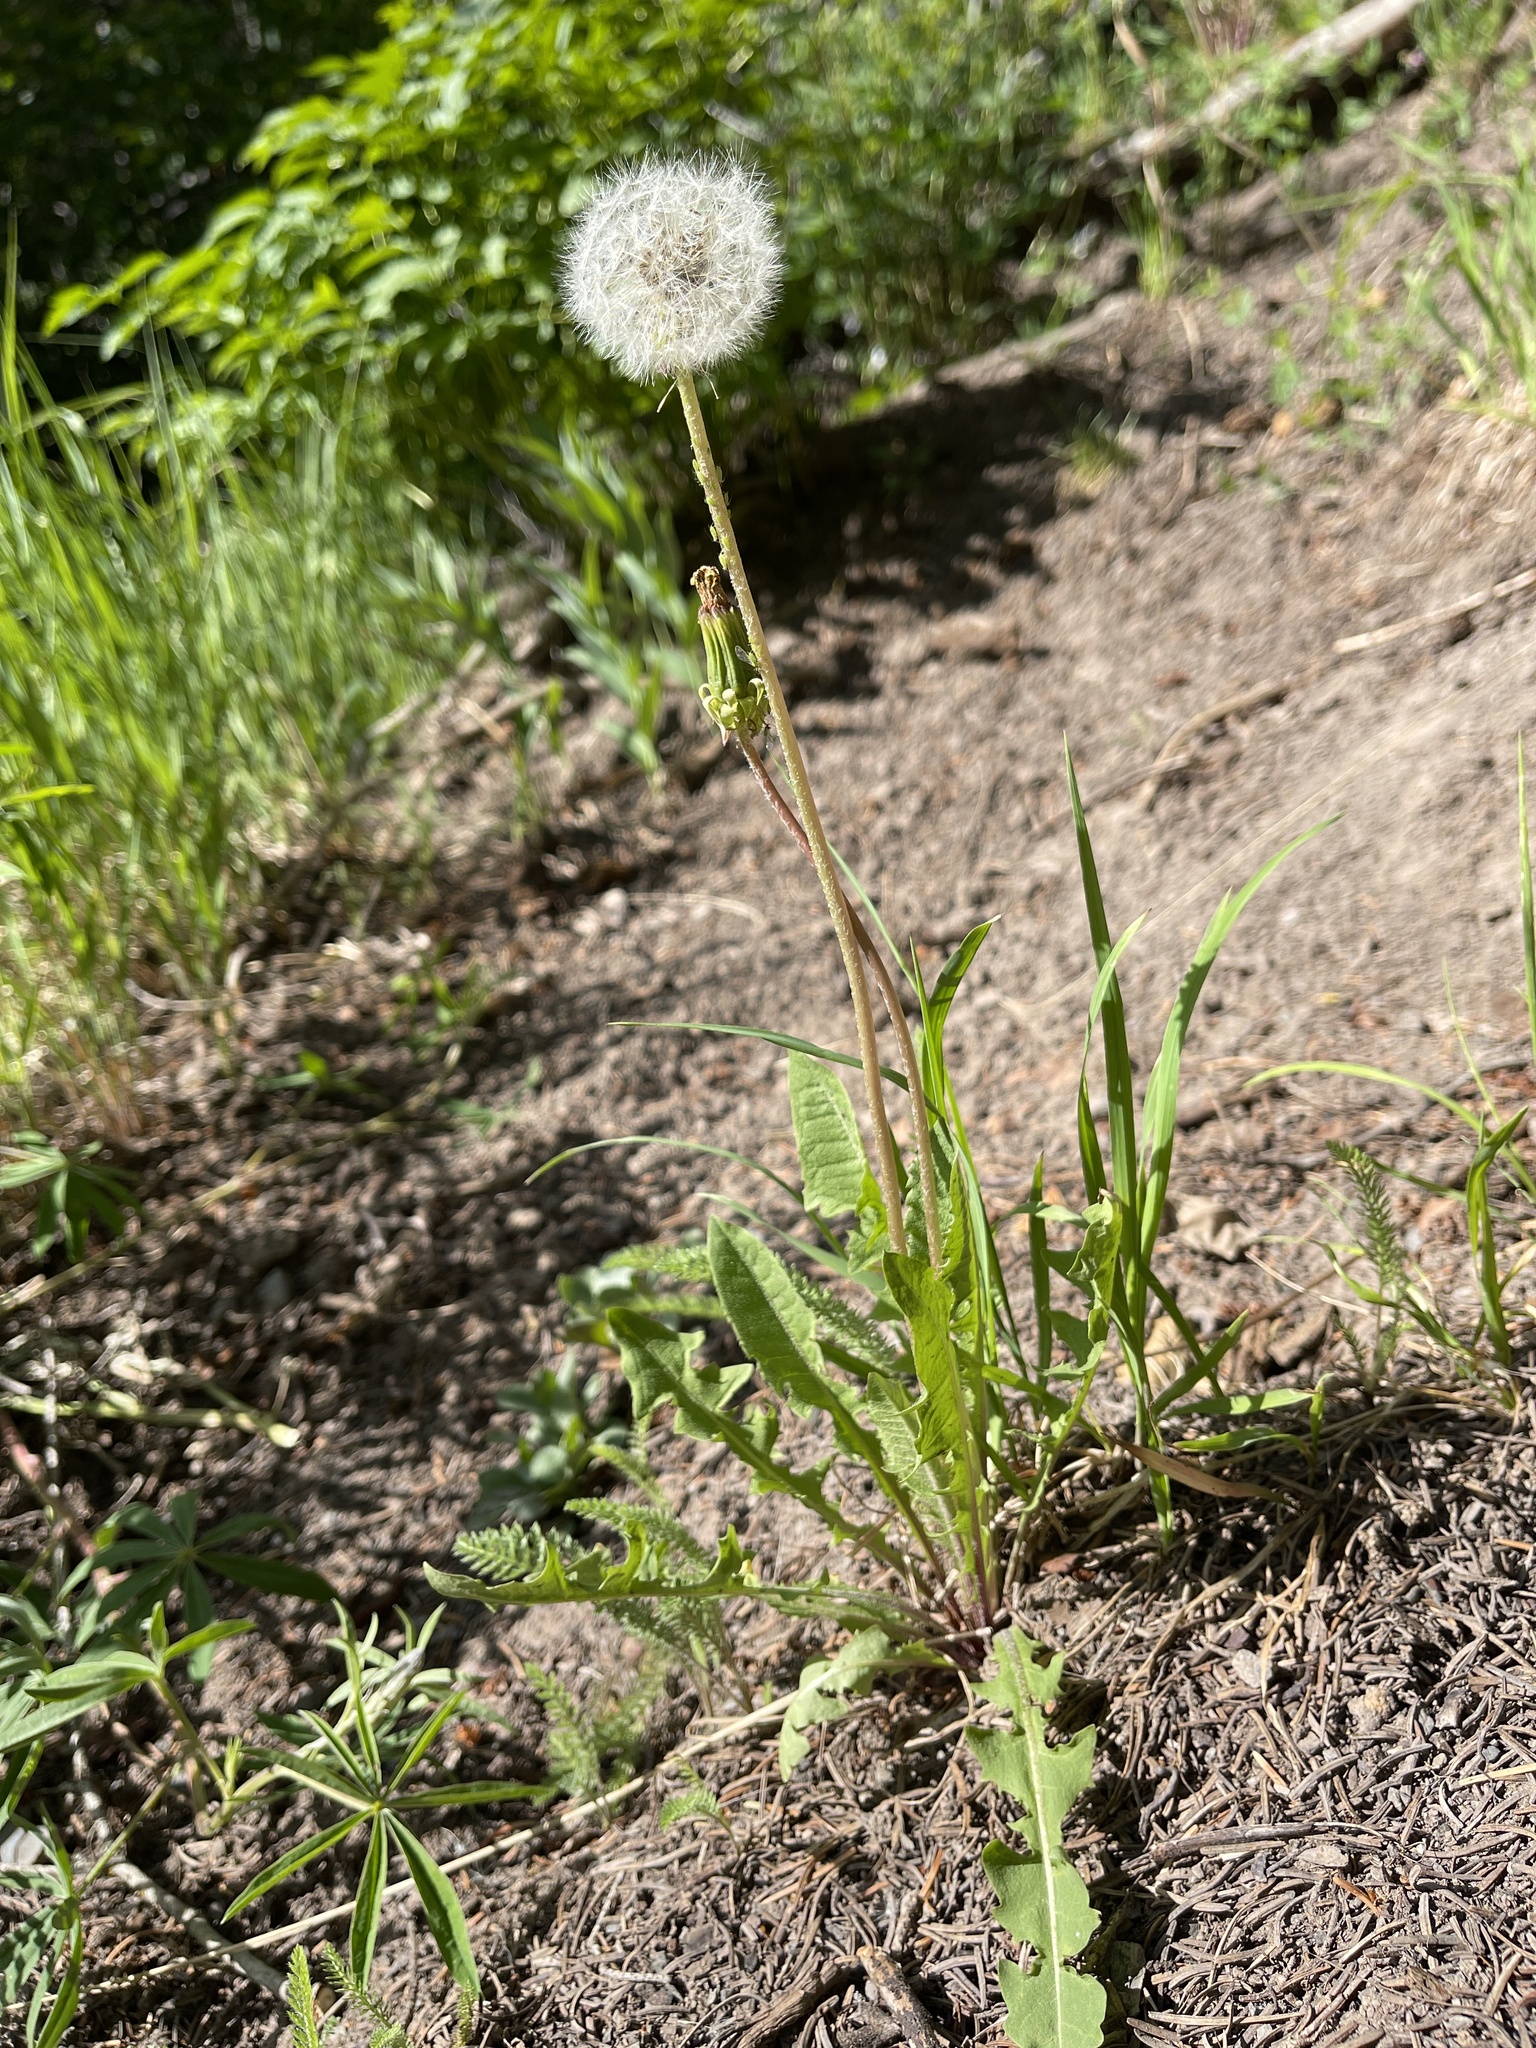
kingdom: Plantae
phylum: Tracheophyta
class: Magnoliopsida
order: Asterales
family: Asteraceae
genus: Taraxacum
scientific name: Taraxacum officinale
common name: Common dandelion
